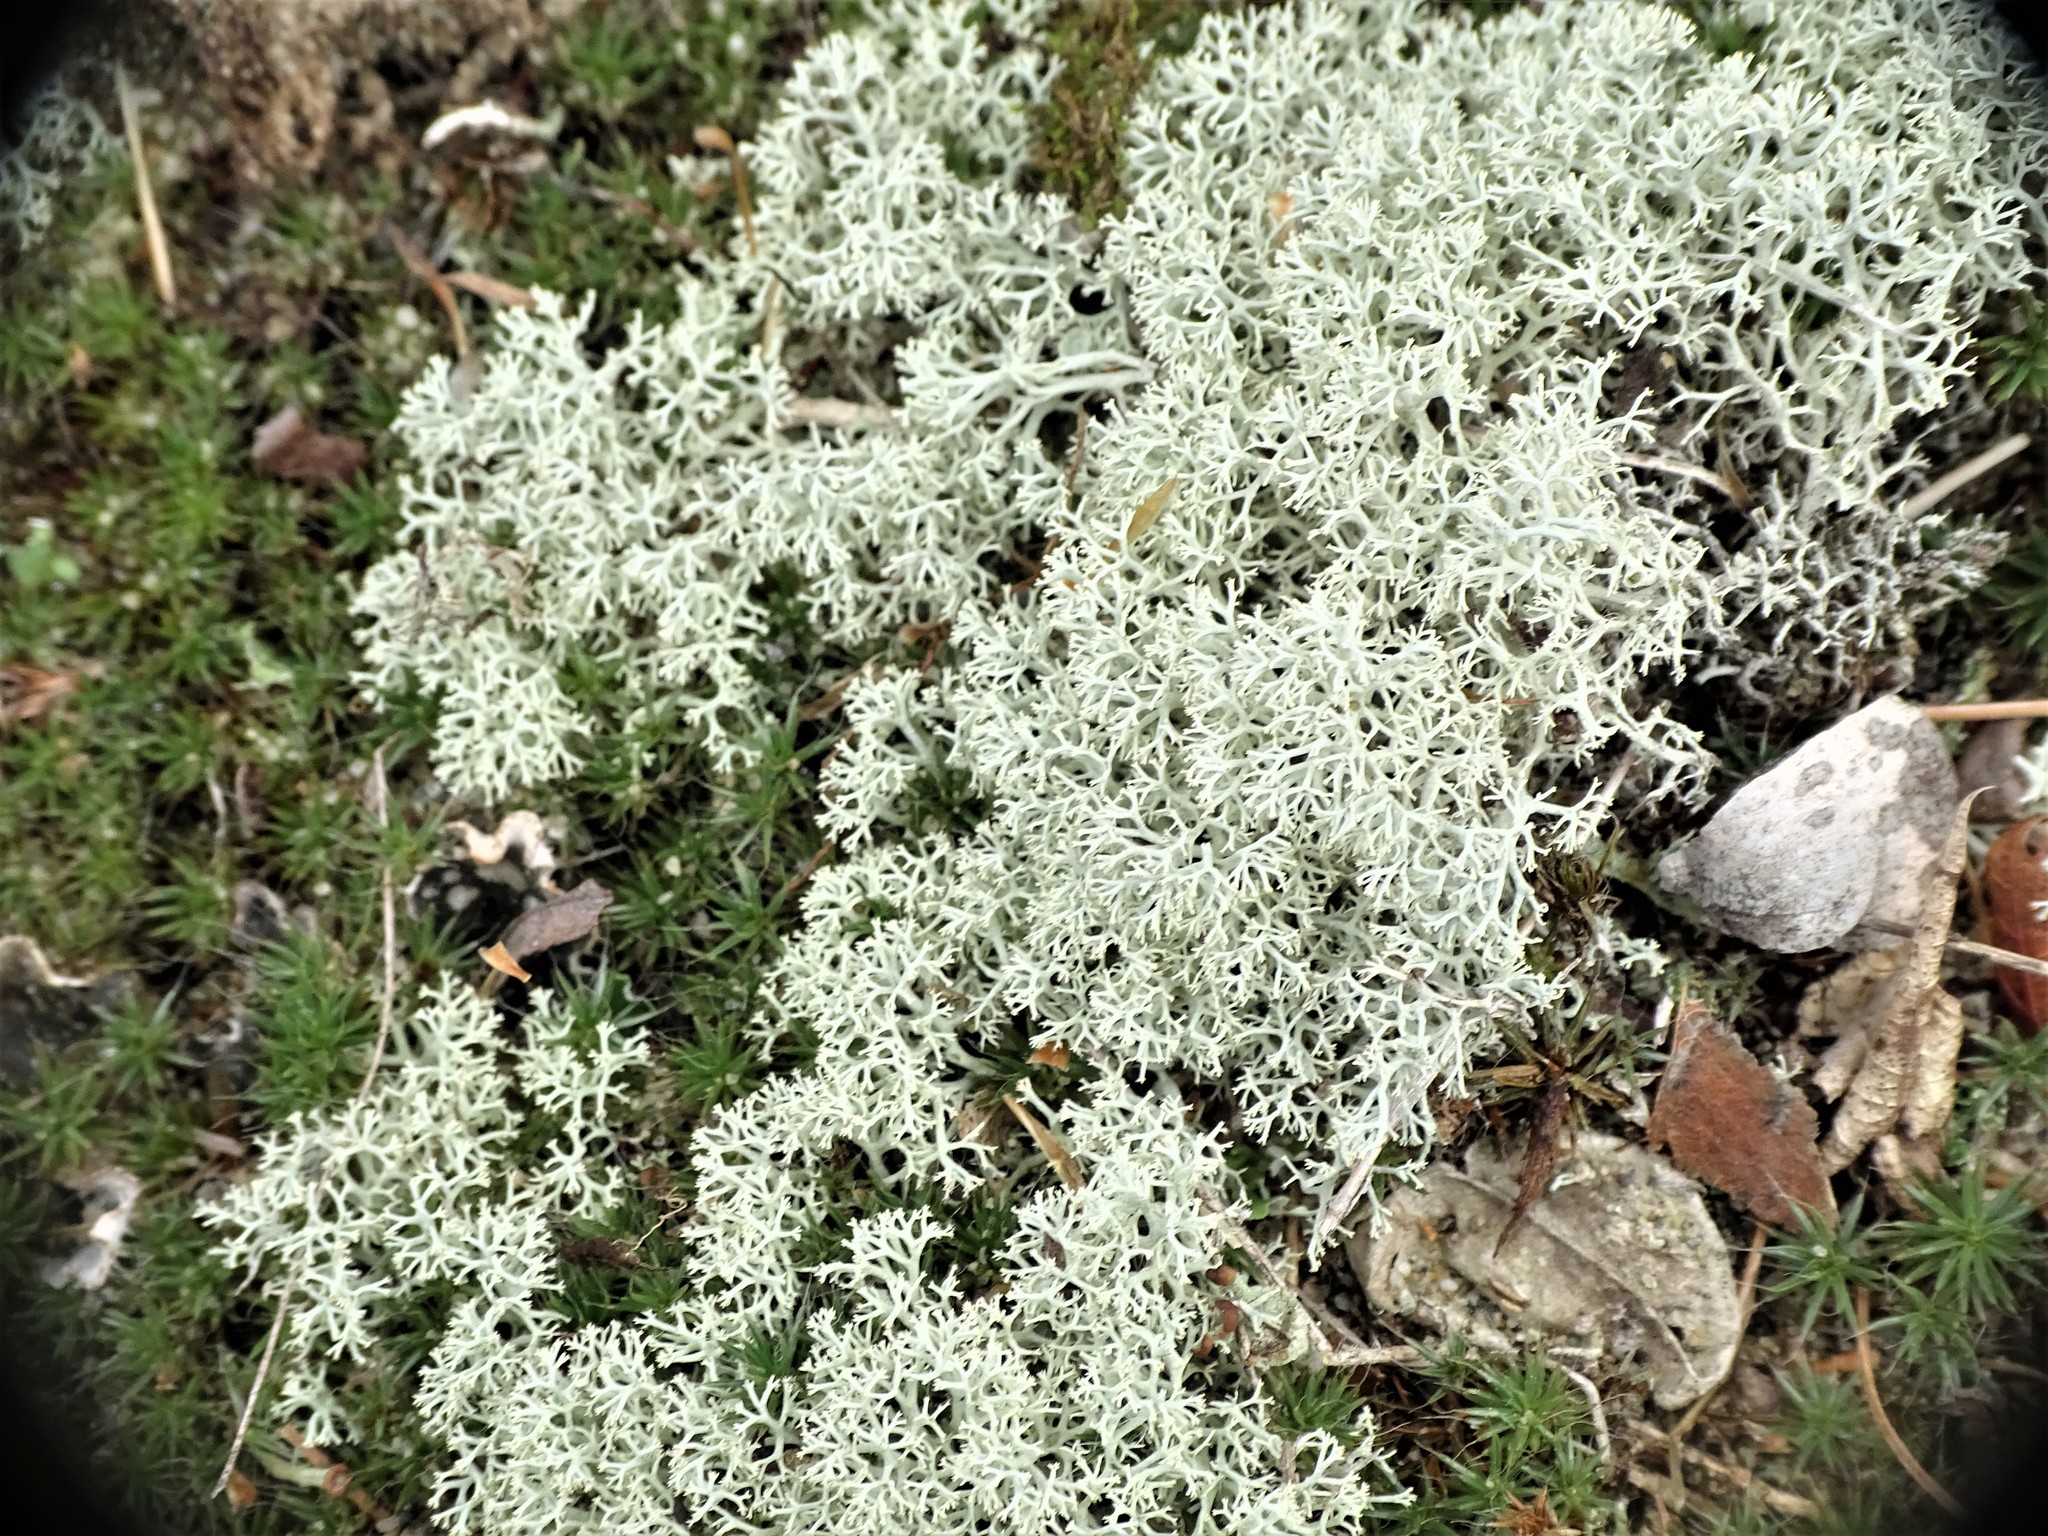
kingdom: Fungi
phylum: Ascomycota
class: Lecanoromycetes
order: Lecanorales
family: Cladoniaceae
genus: Cladonia
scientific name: Cladonia rangiferina
